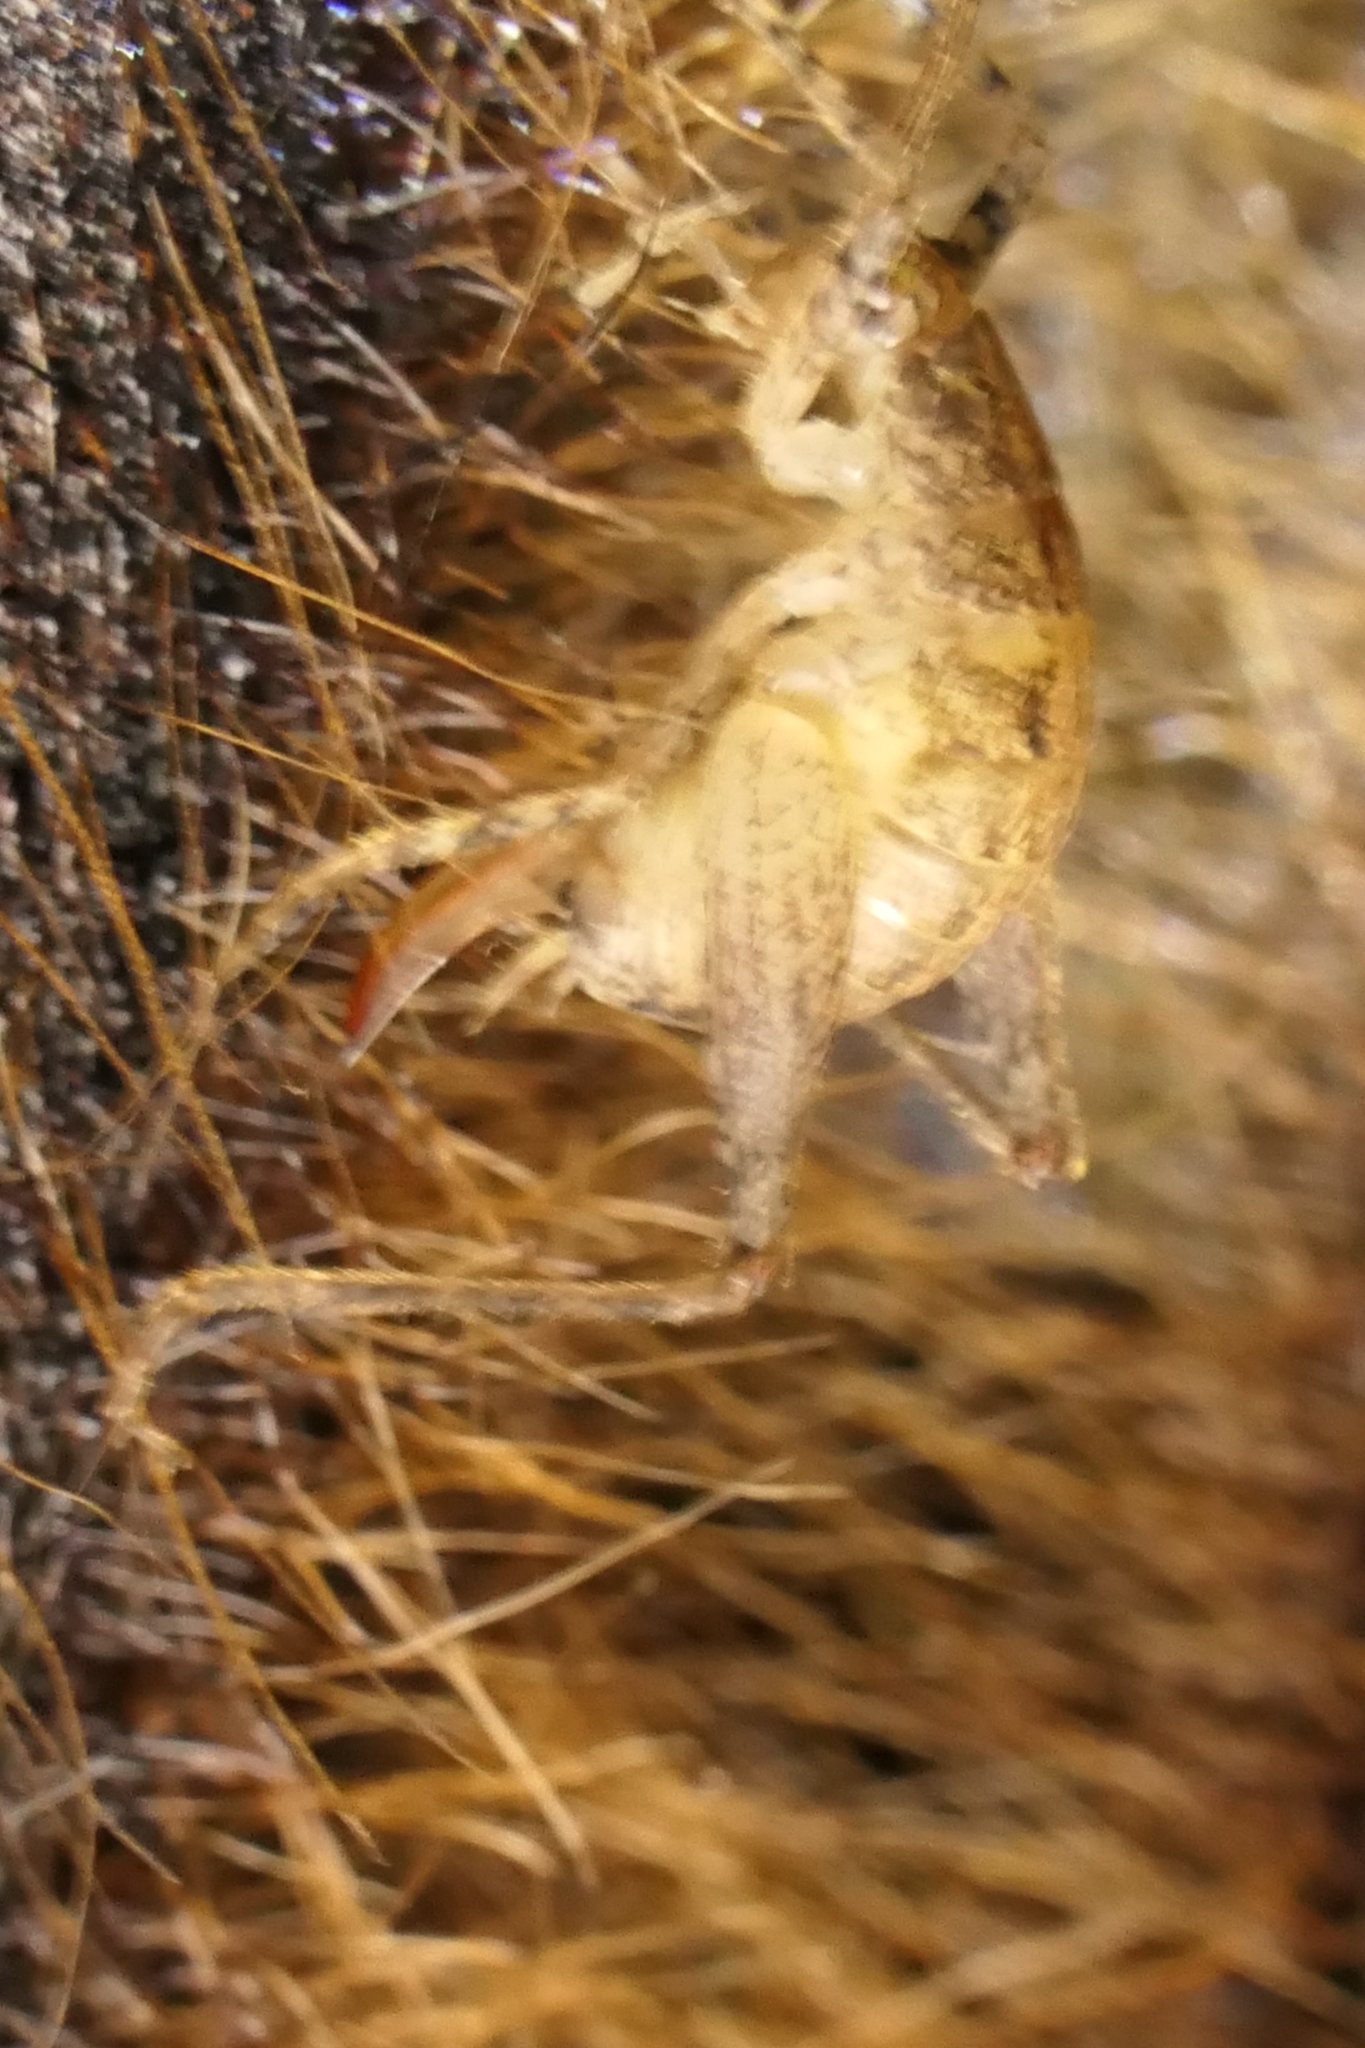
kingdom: Animalia
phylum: Arthropoda
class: Insecta
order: Orthoptera
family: Rhaphidophoridae
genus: Isoplectron
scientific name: Isoplectron armatum
